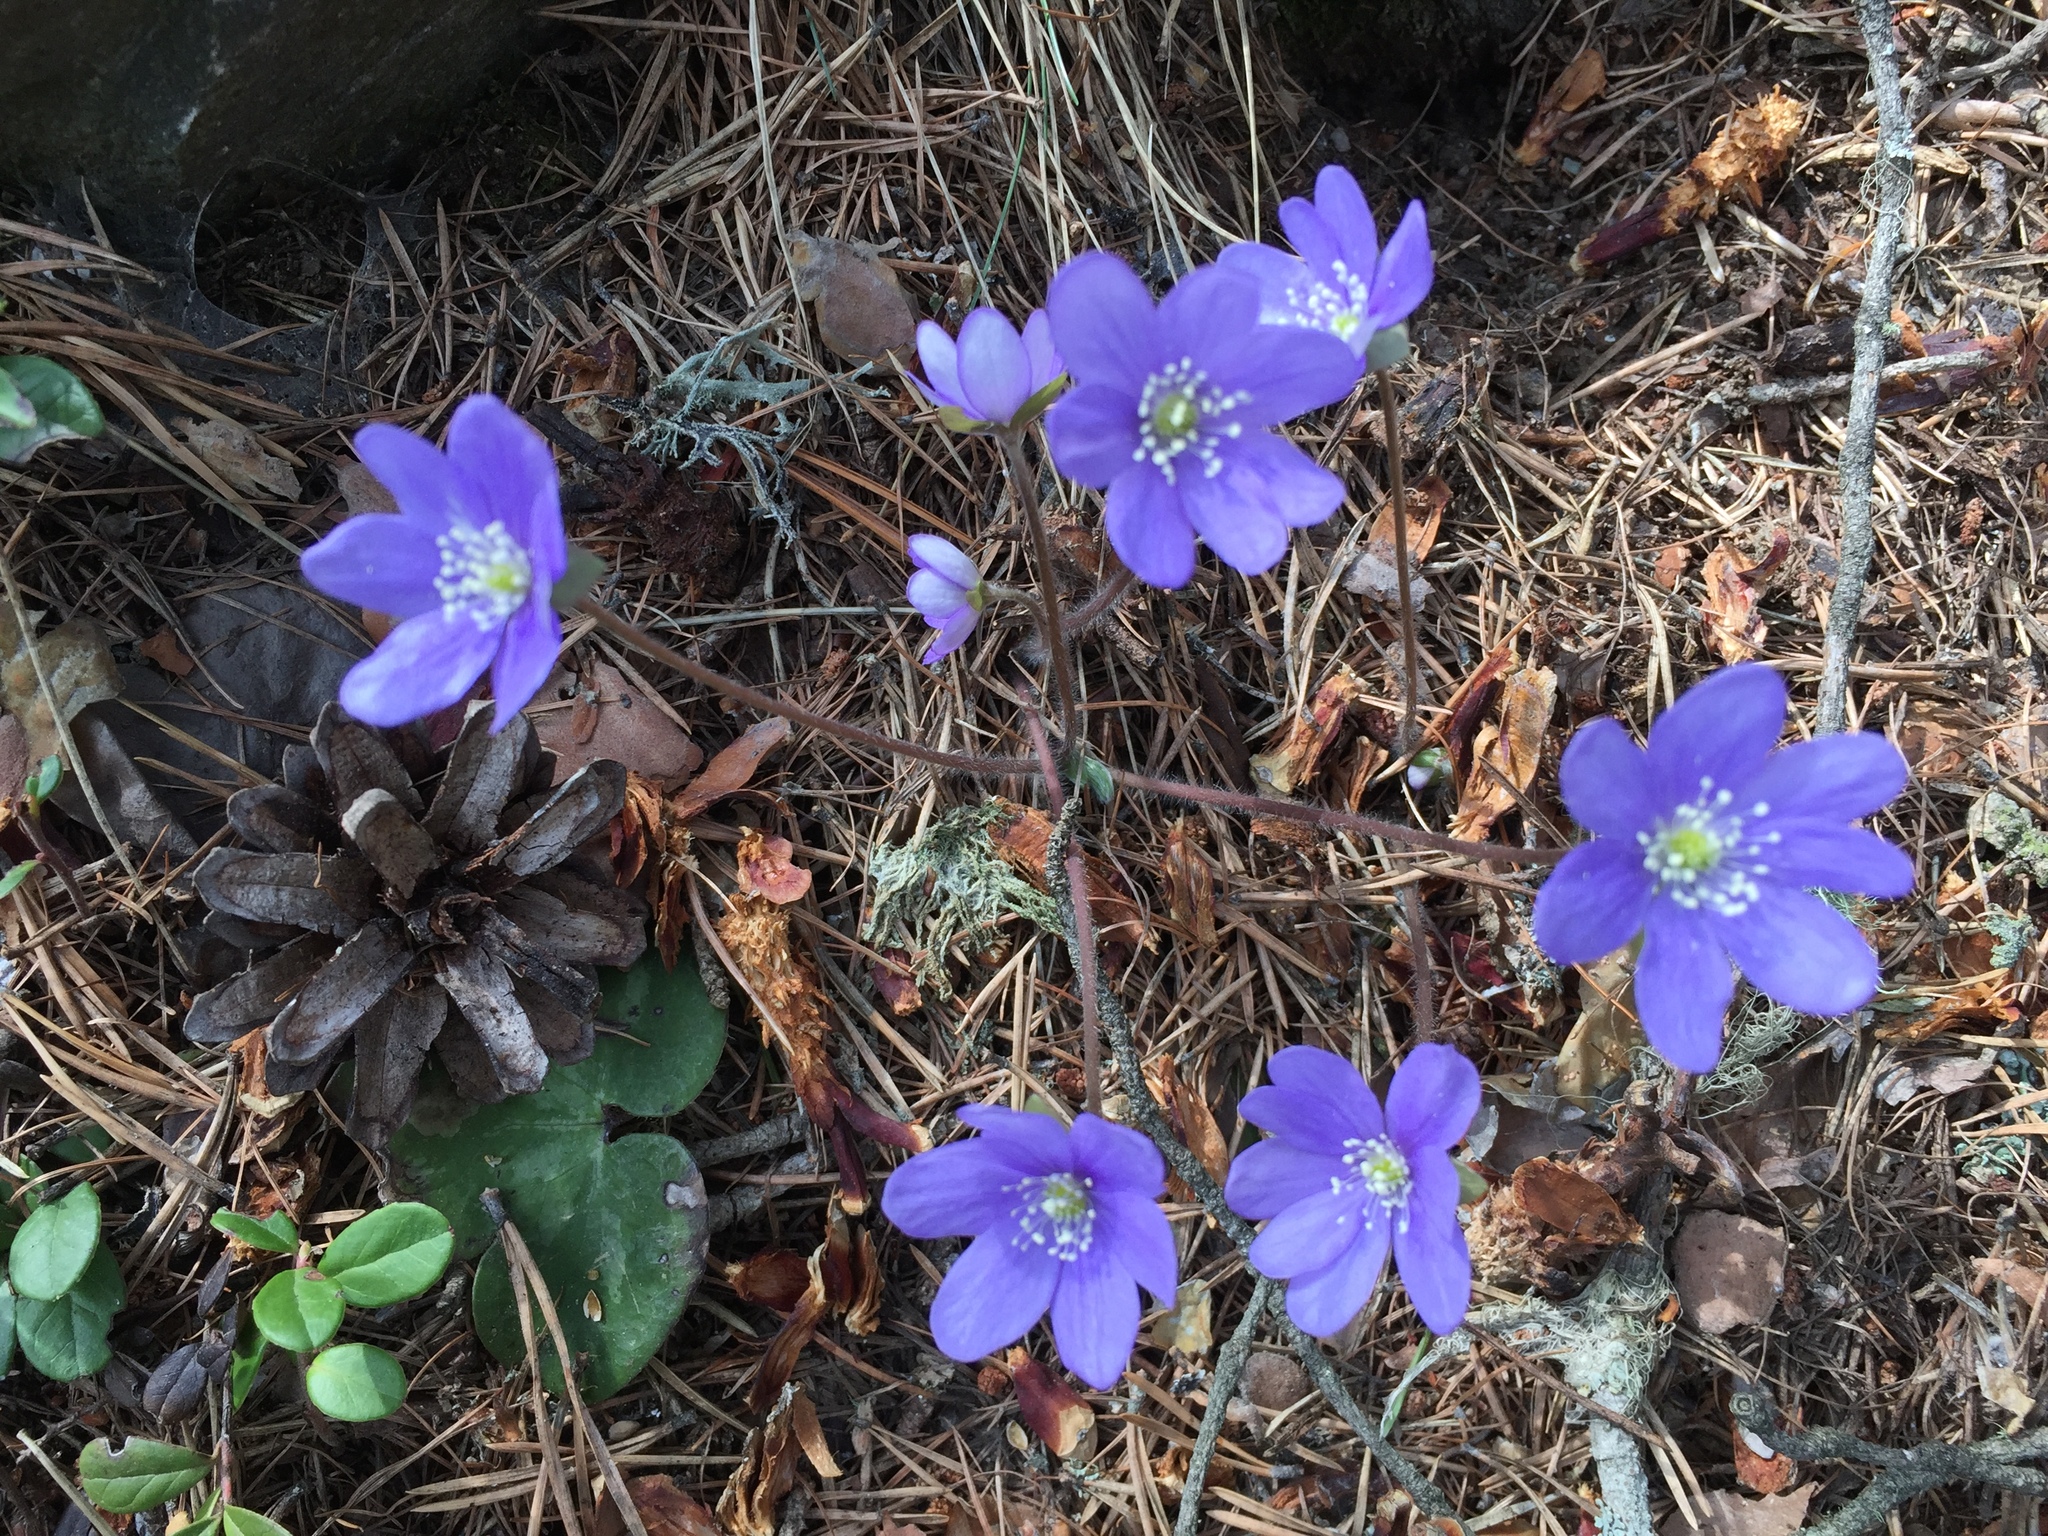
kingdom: Plantae
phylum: Tracheophyta
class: Magnoliopsida
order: Ranunculales
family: Ranunculaceae
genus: Hepatica
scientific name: Hepatica nobilis
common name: Liverleaf
